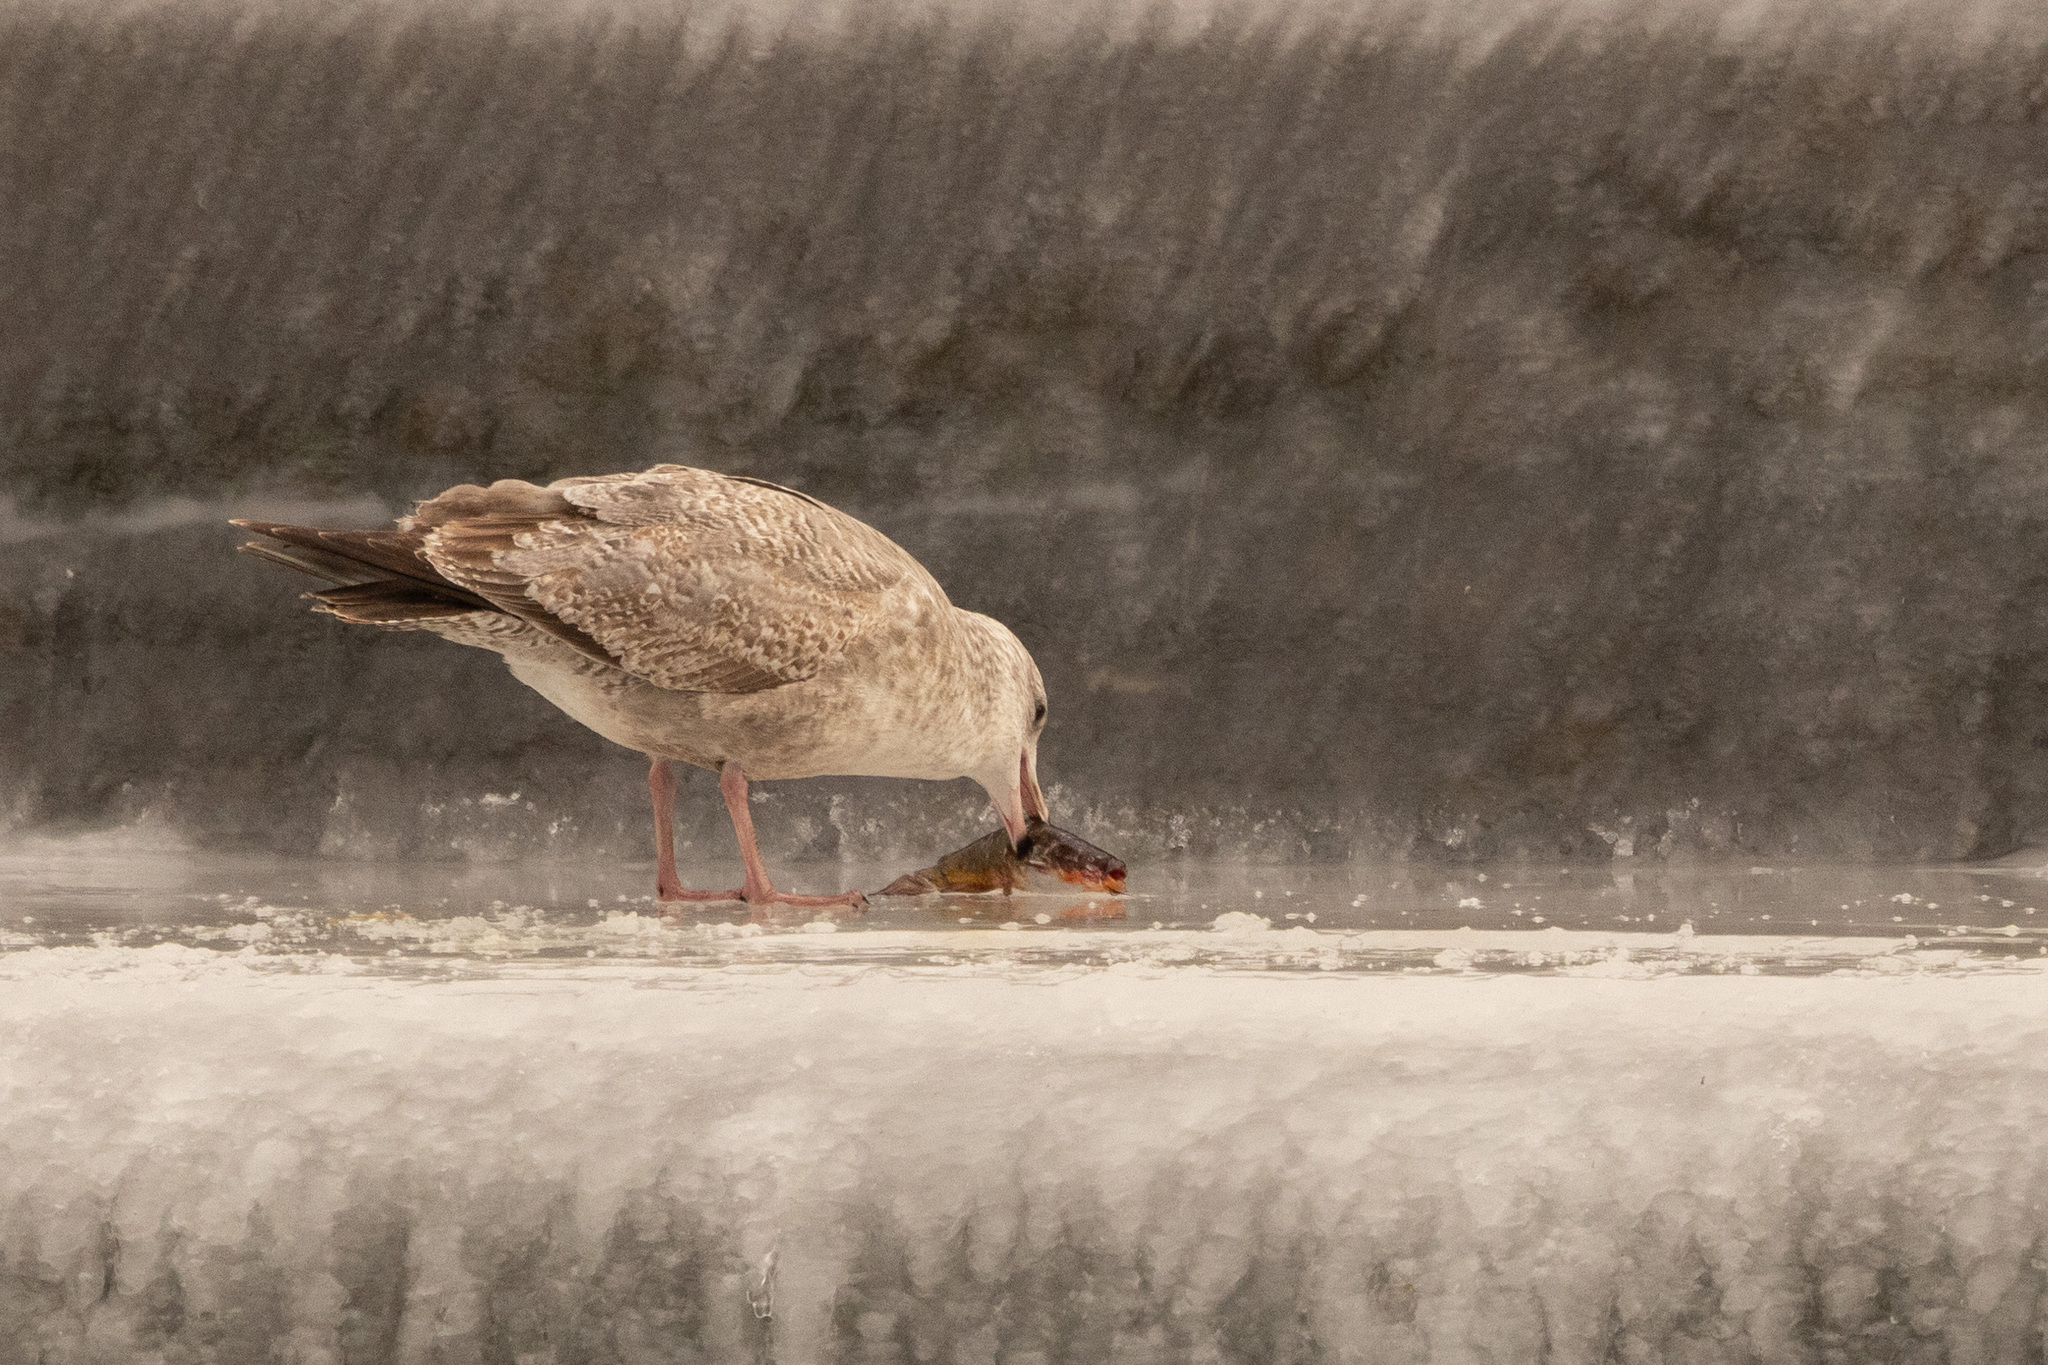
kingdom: Animalia
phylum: Chordata
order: Siluriformes
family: Ictaluridae
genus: Ameiurus
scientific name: Ameiurus
